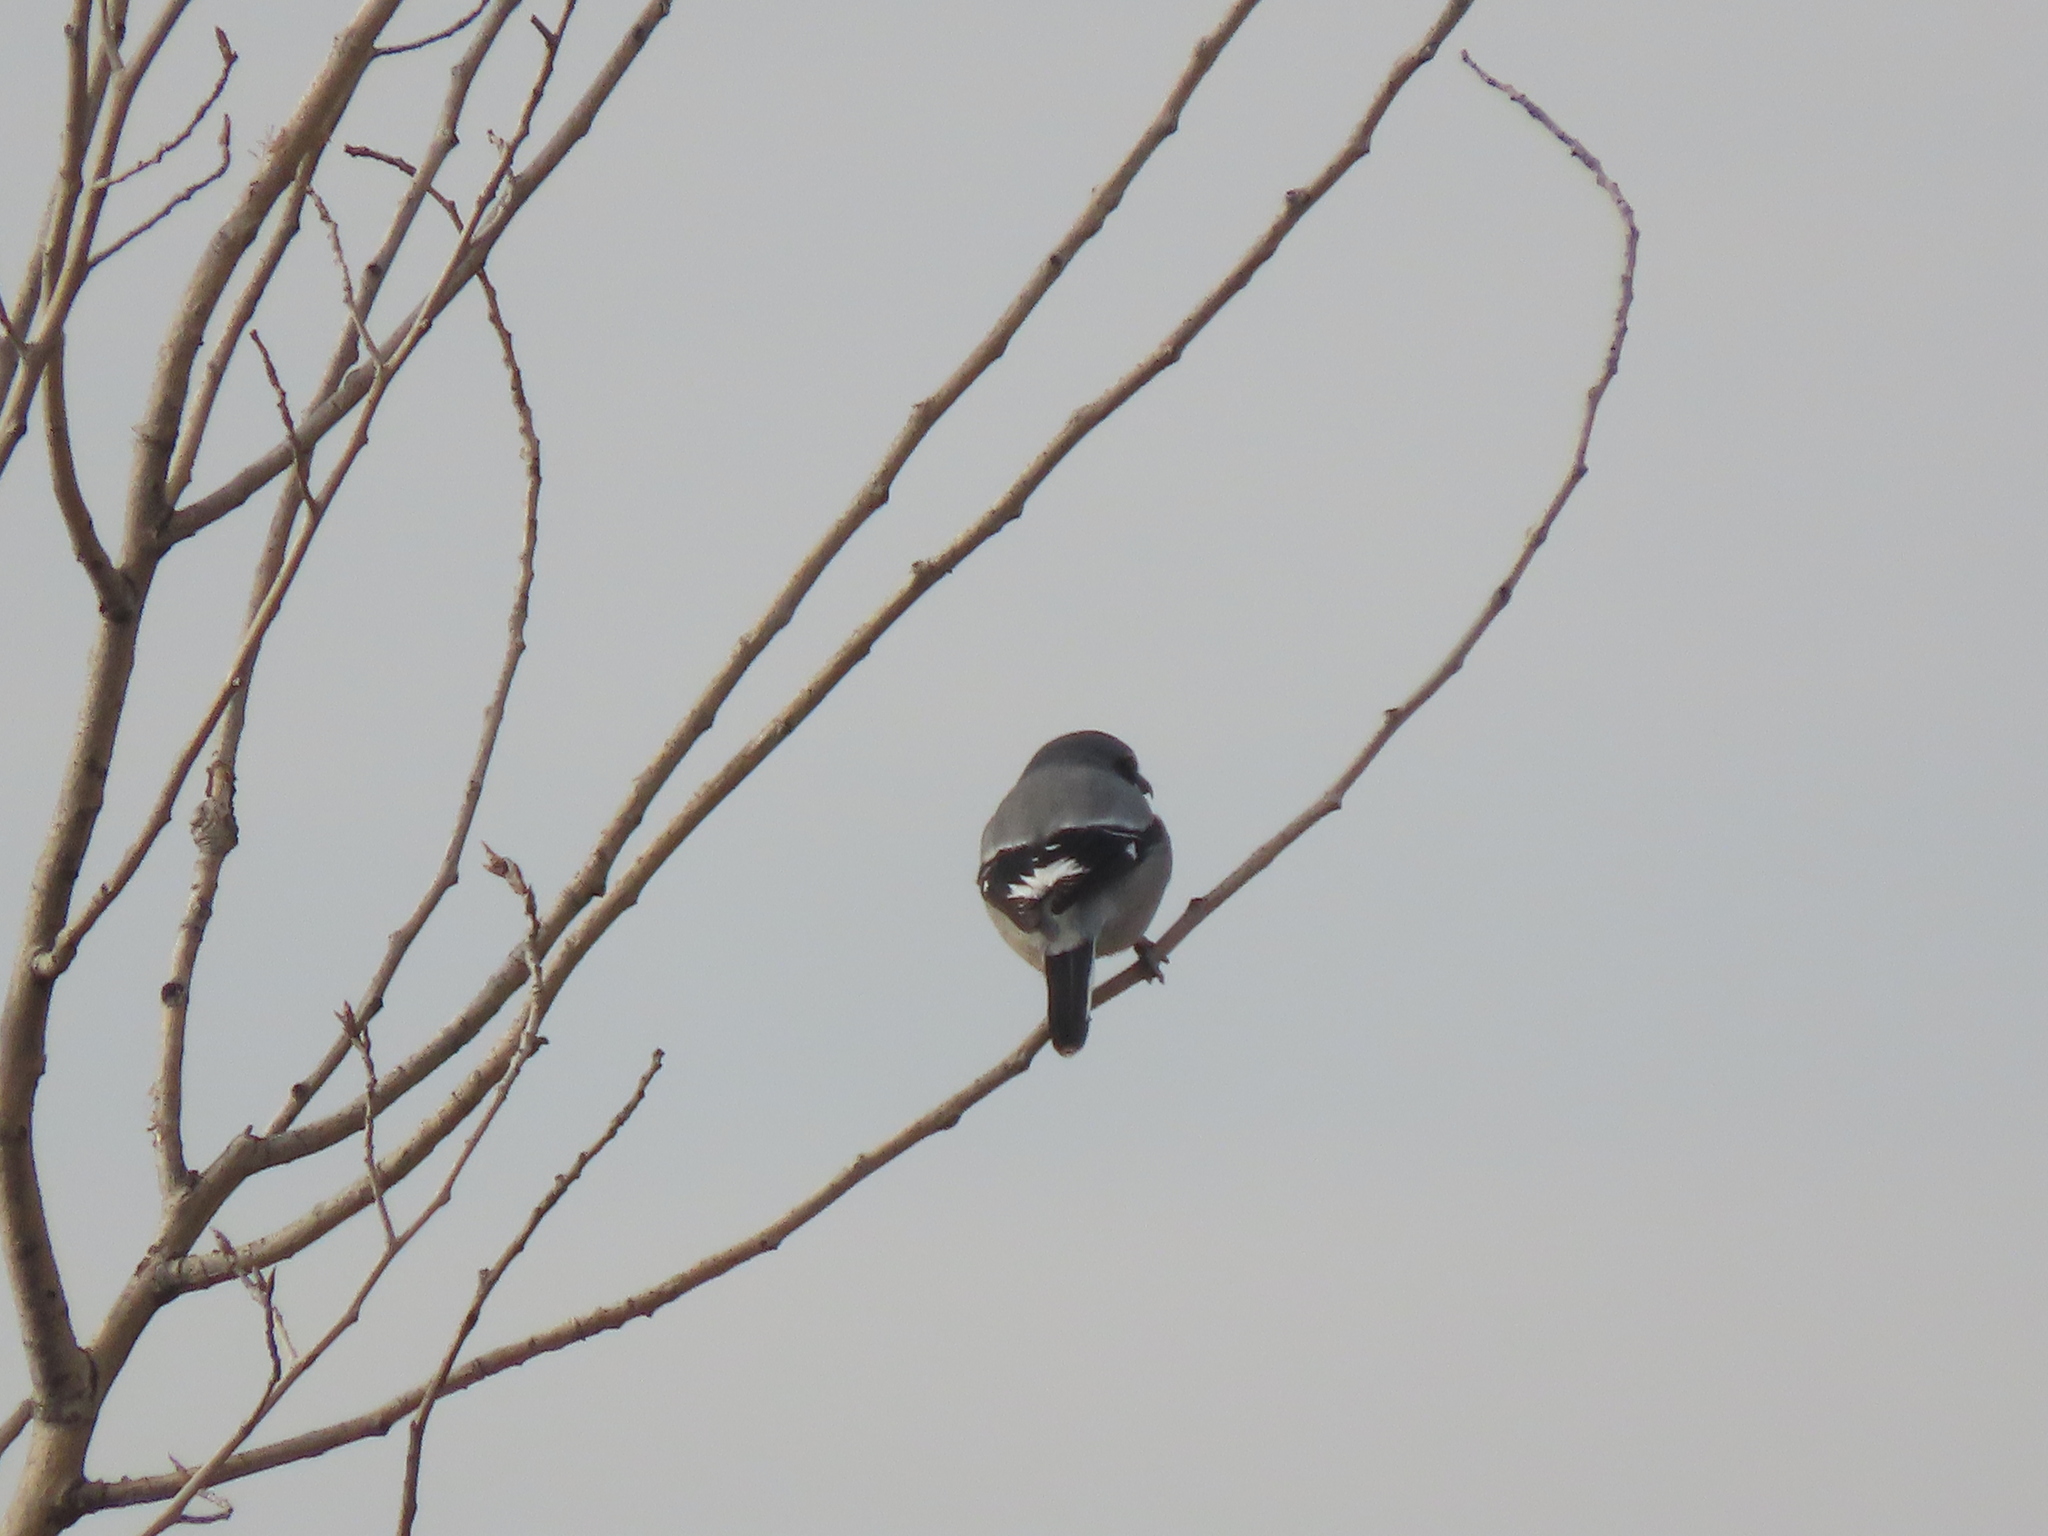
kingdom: Animalia
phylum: Chordata
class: Aves
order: Passeriformes
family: Laniidae
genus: Lanius
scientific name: Lanius meridionalis
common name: Iberian grey shrike
